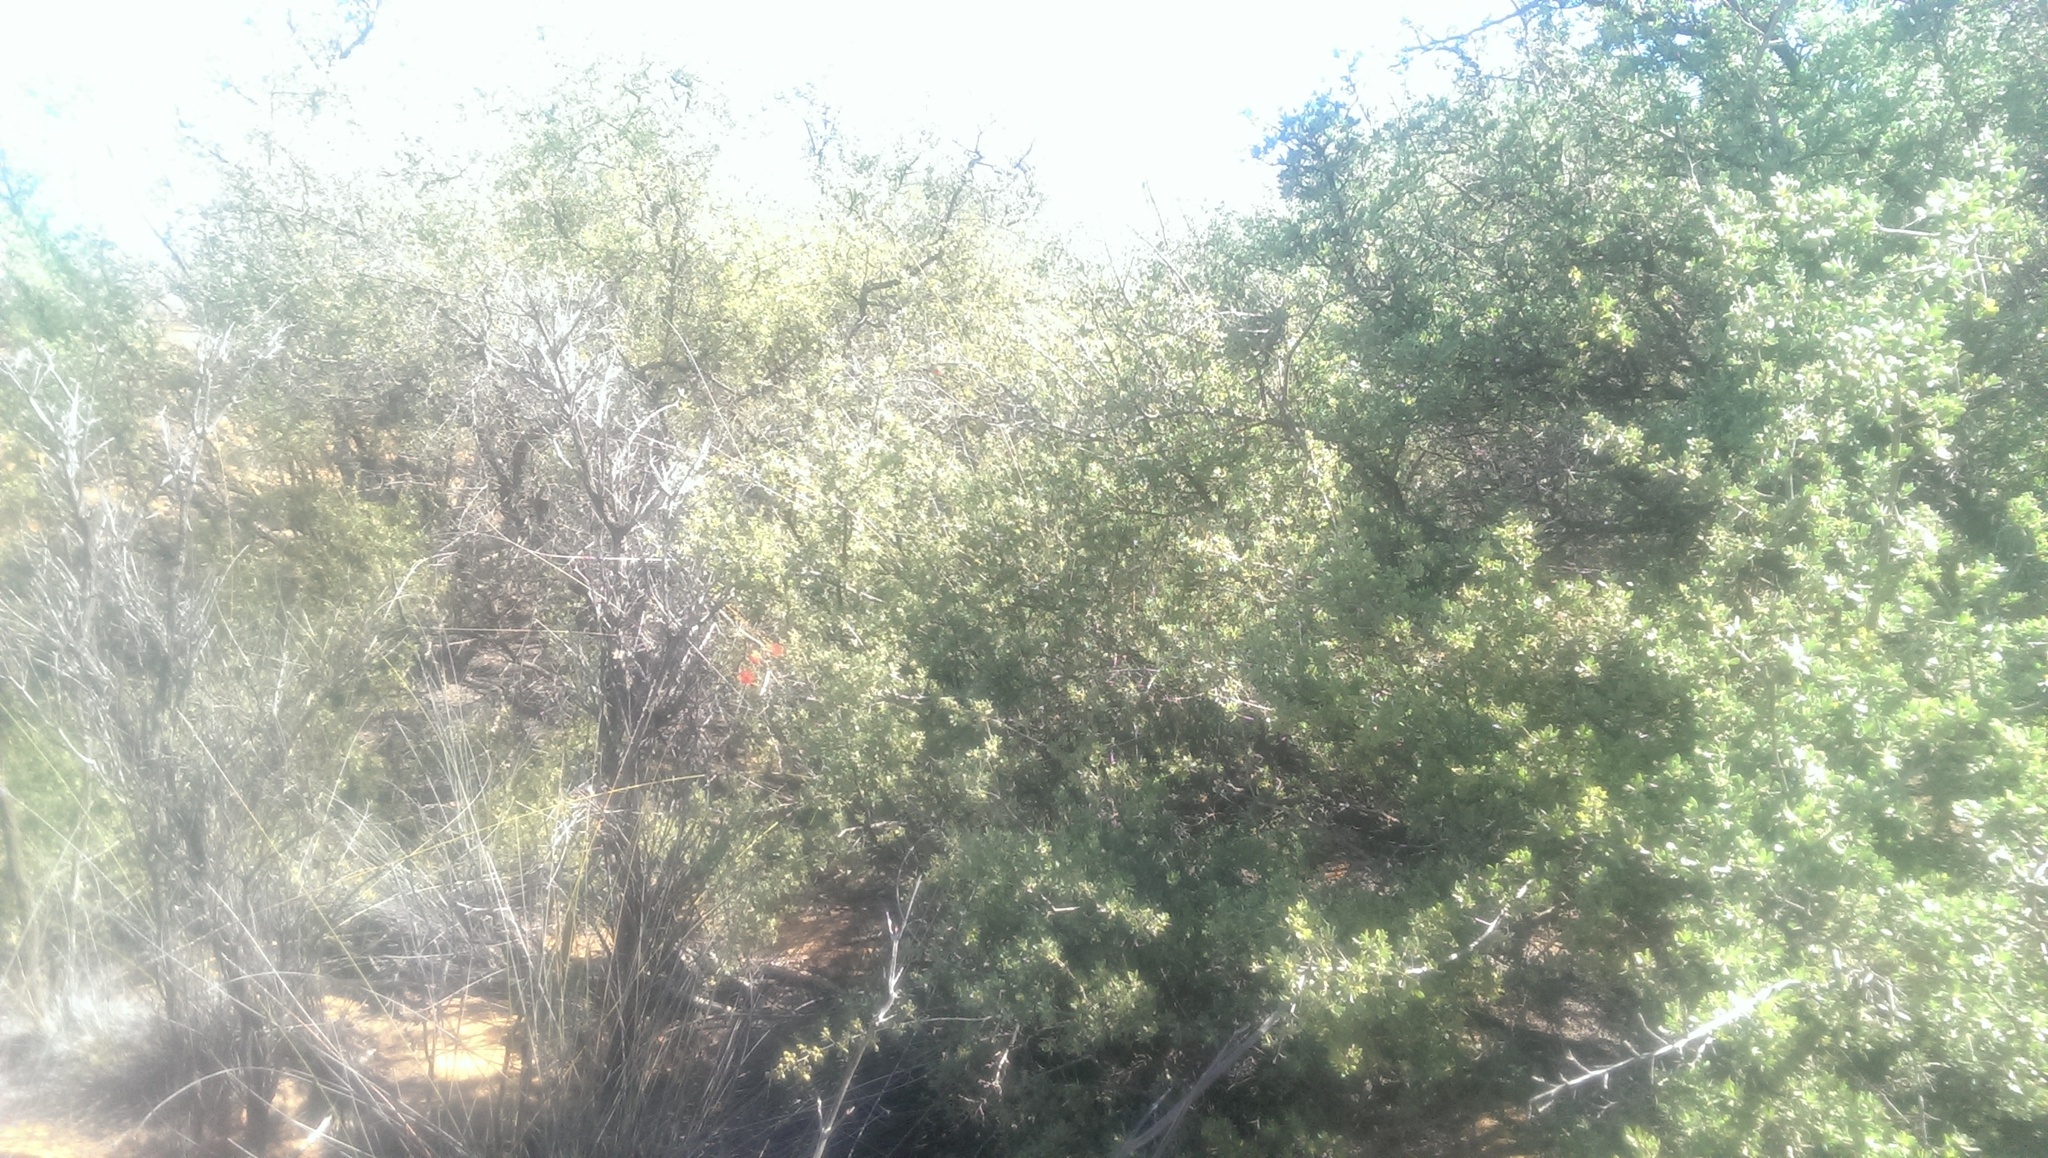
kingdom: Plantae
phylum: Tracheophyta
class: Magnoliopsida
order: Myrtales
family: Myrtaceae
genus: Kunzea
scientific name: Kunzea pulchella
